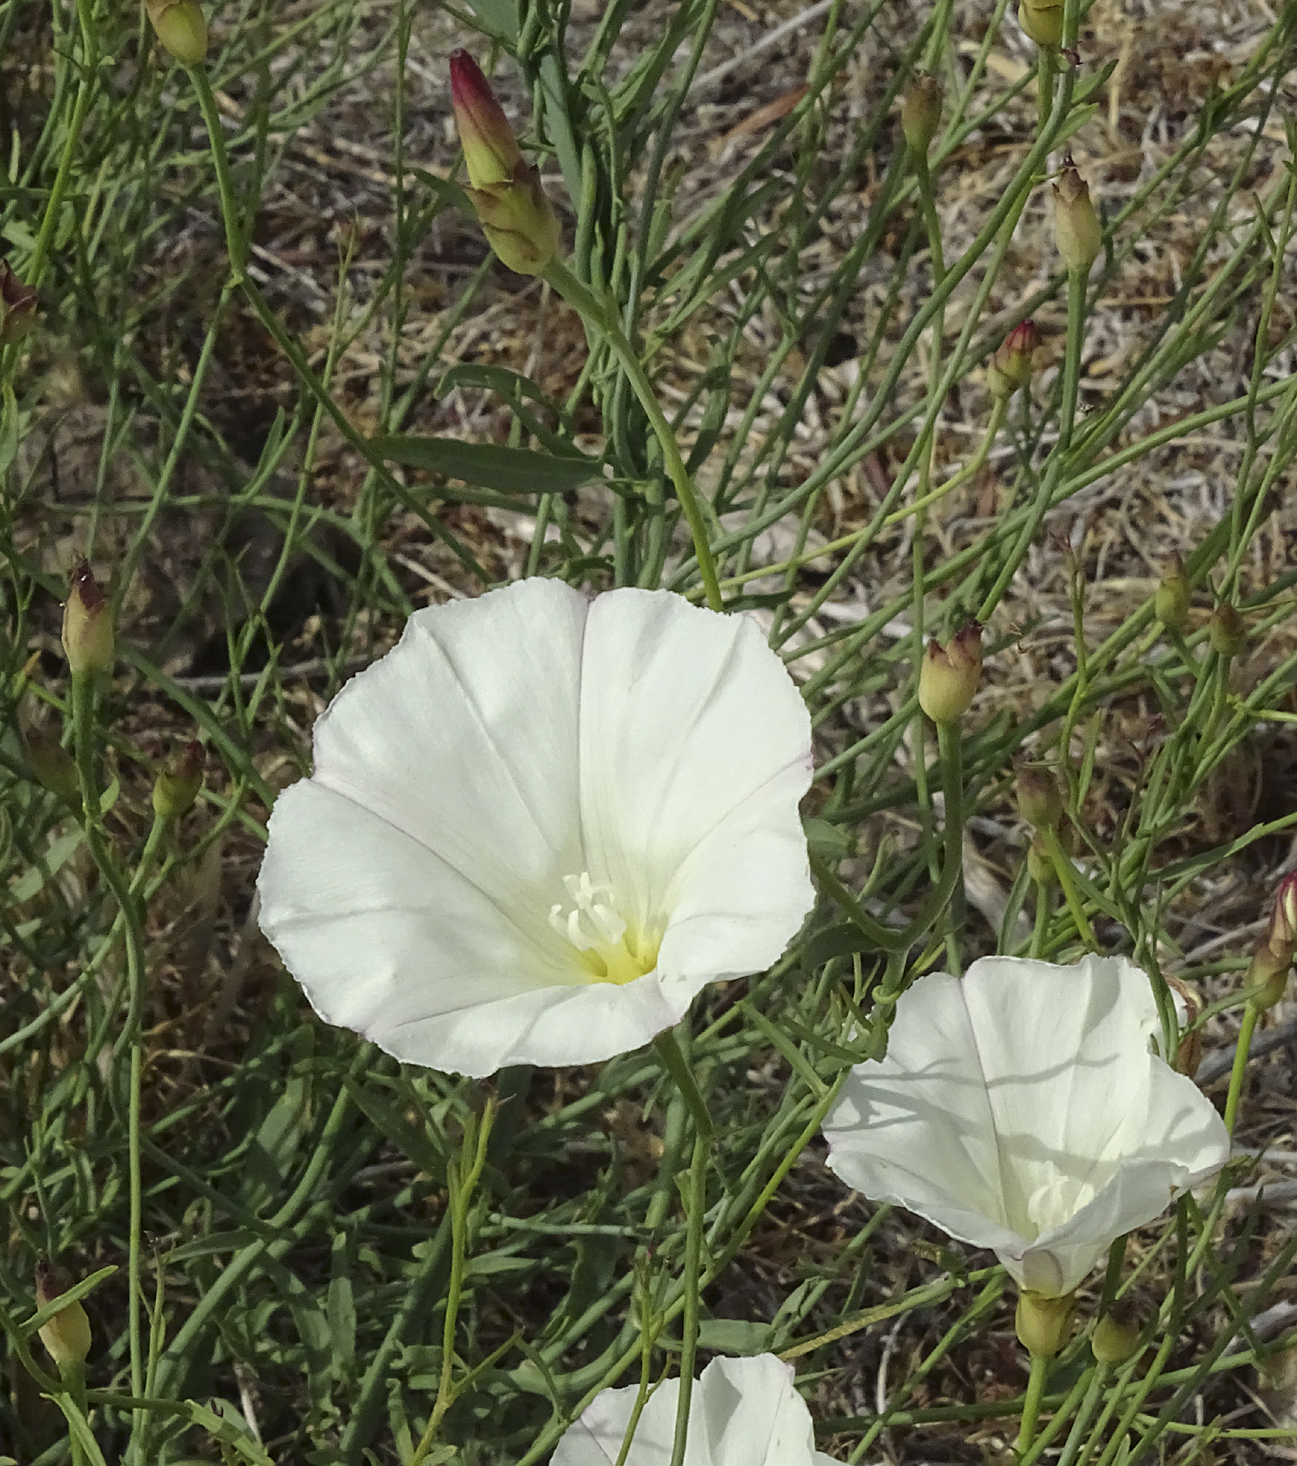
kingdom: Plantae
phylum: Tracheophyta
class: Magnoliopsida
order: Solanales
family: Convolvulaceae
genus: Calystegia
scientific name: Calystegia longipes
